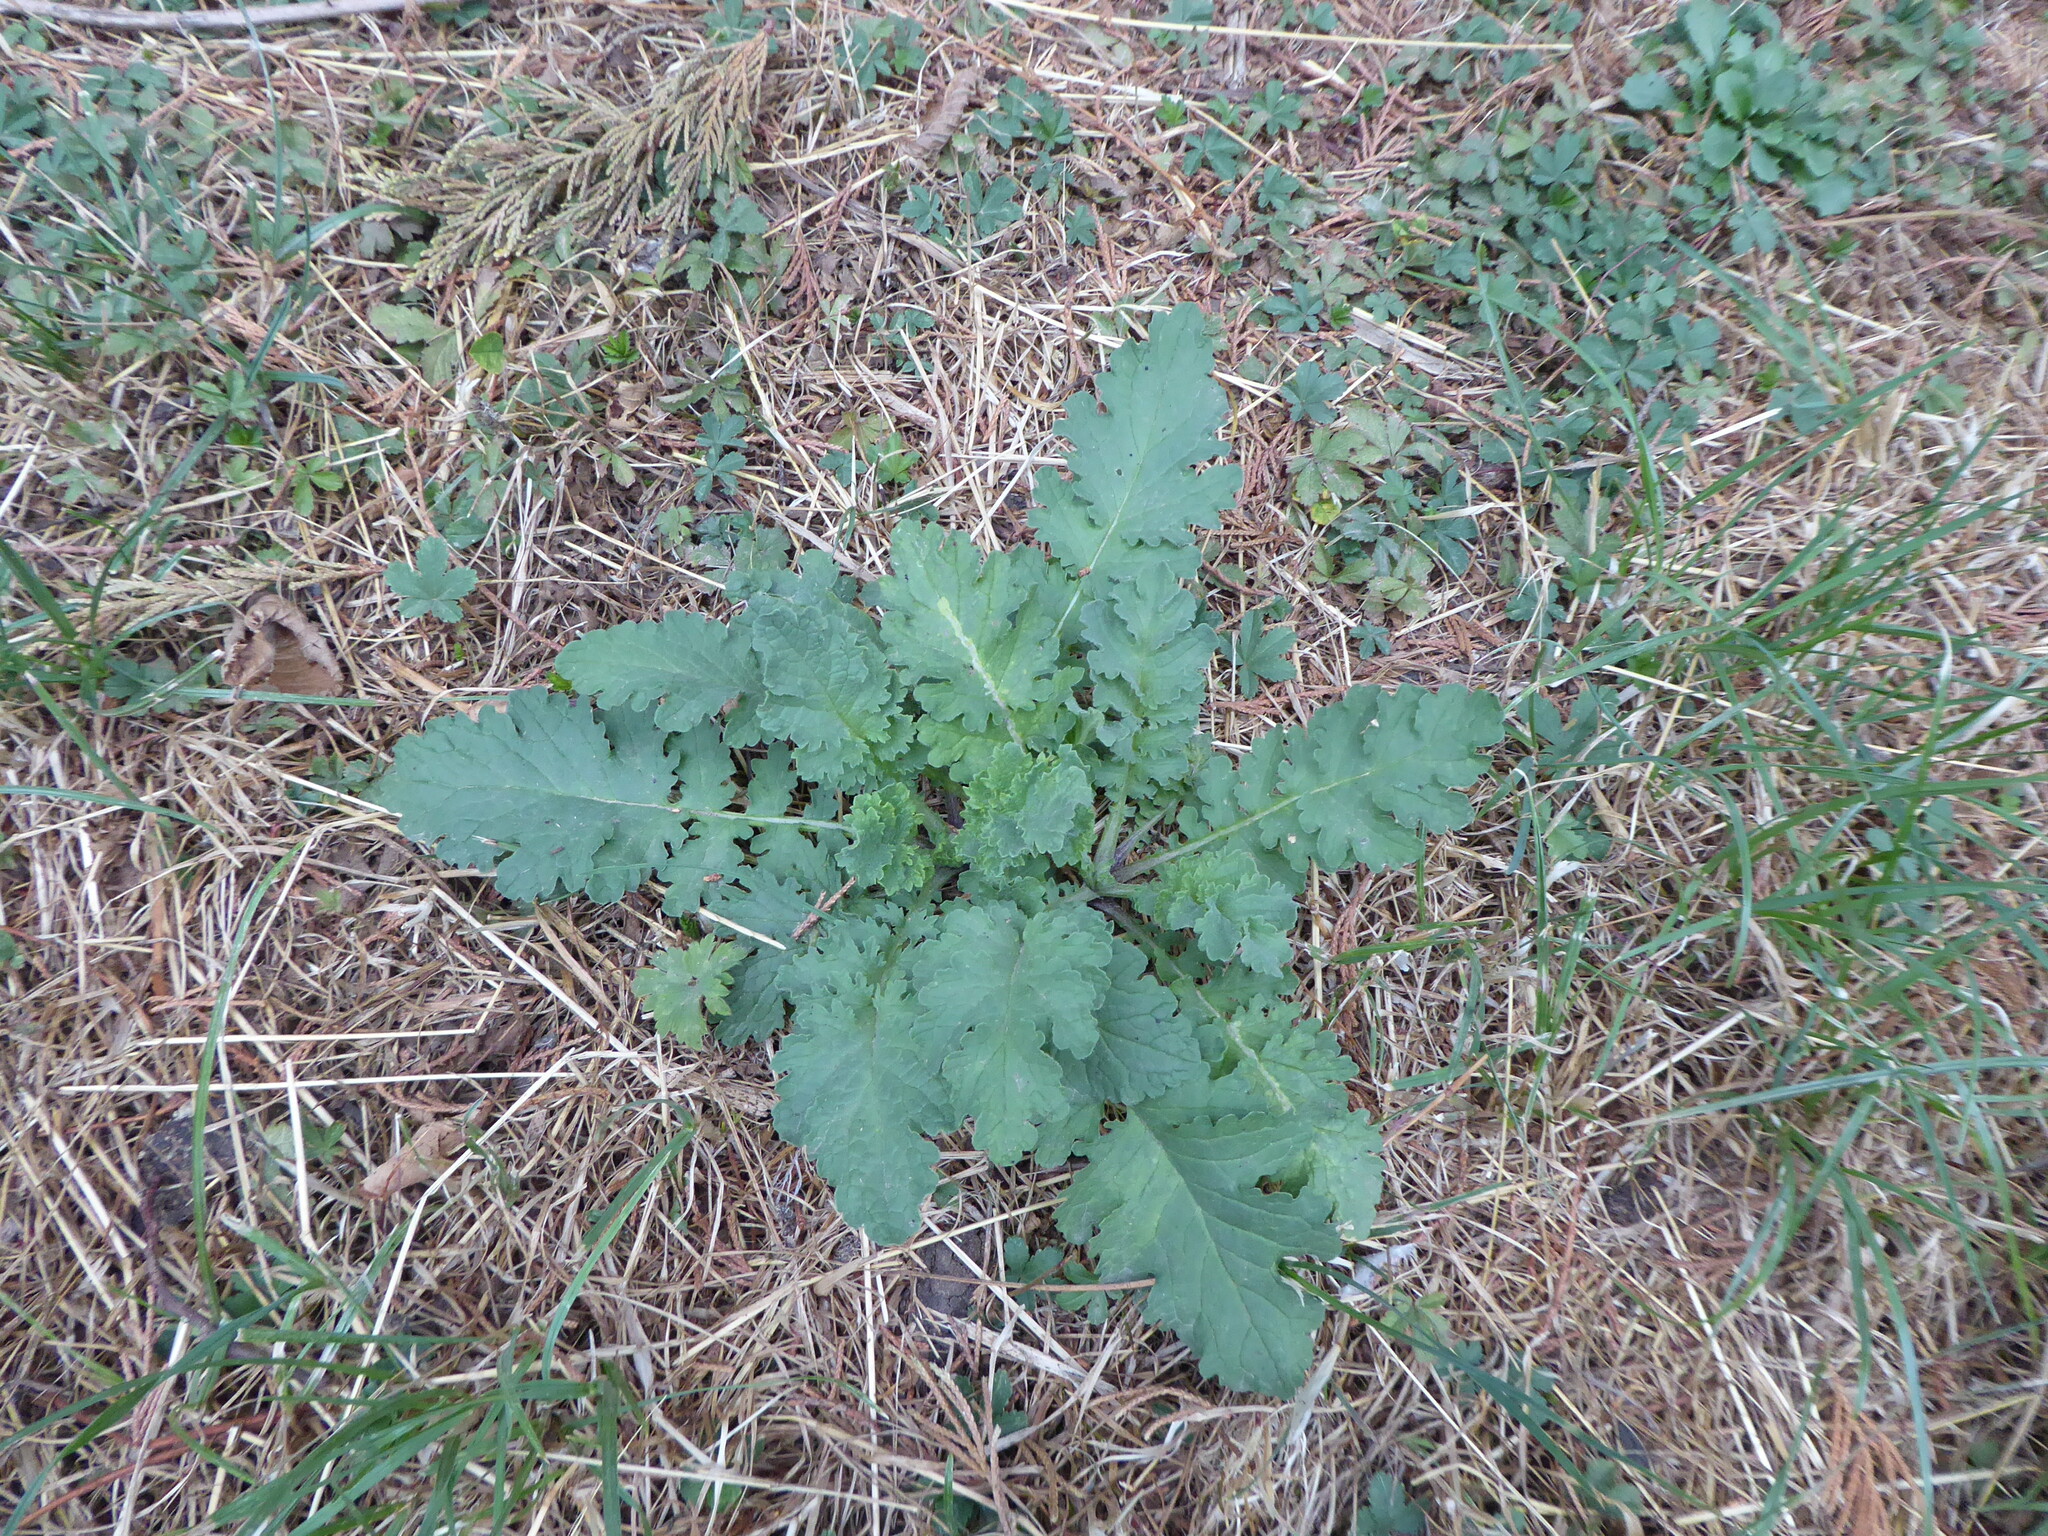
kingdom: Plantae
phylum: Tracheophyta
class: Magnoliopsida
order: Asterales
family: Asteraceae
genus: Jacobaea
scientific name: Jacobaea vulgaris
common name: Stinking willie
